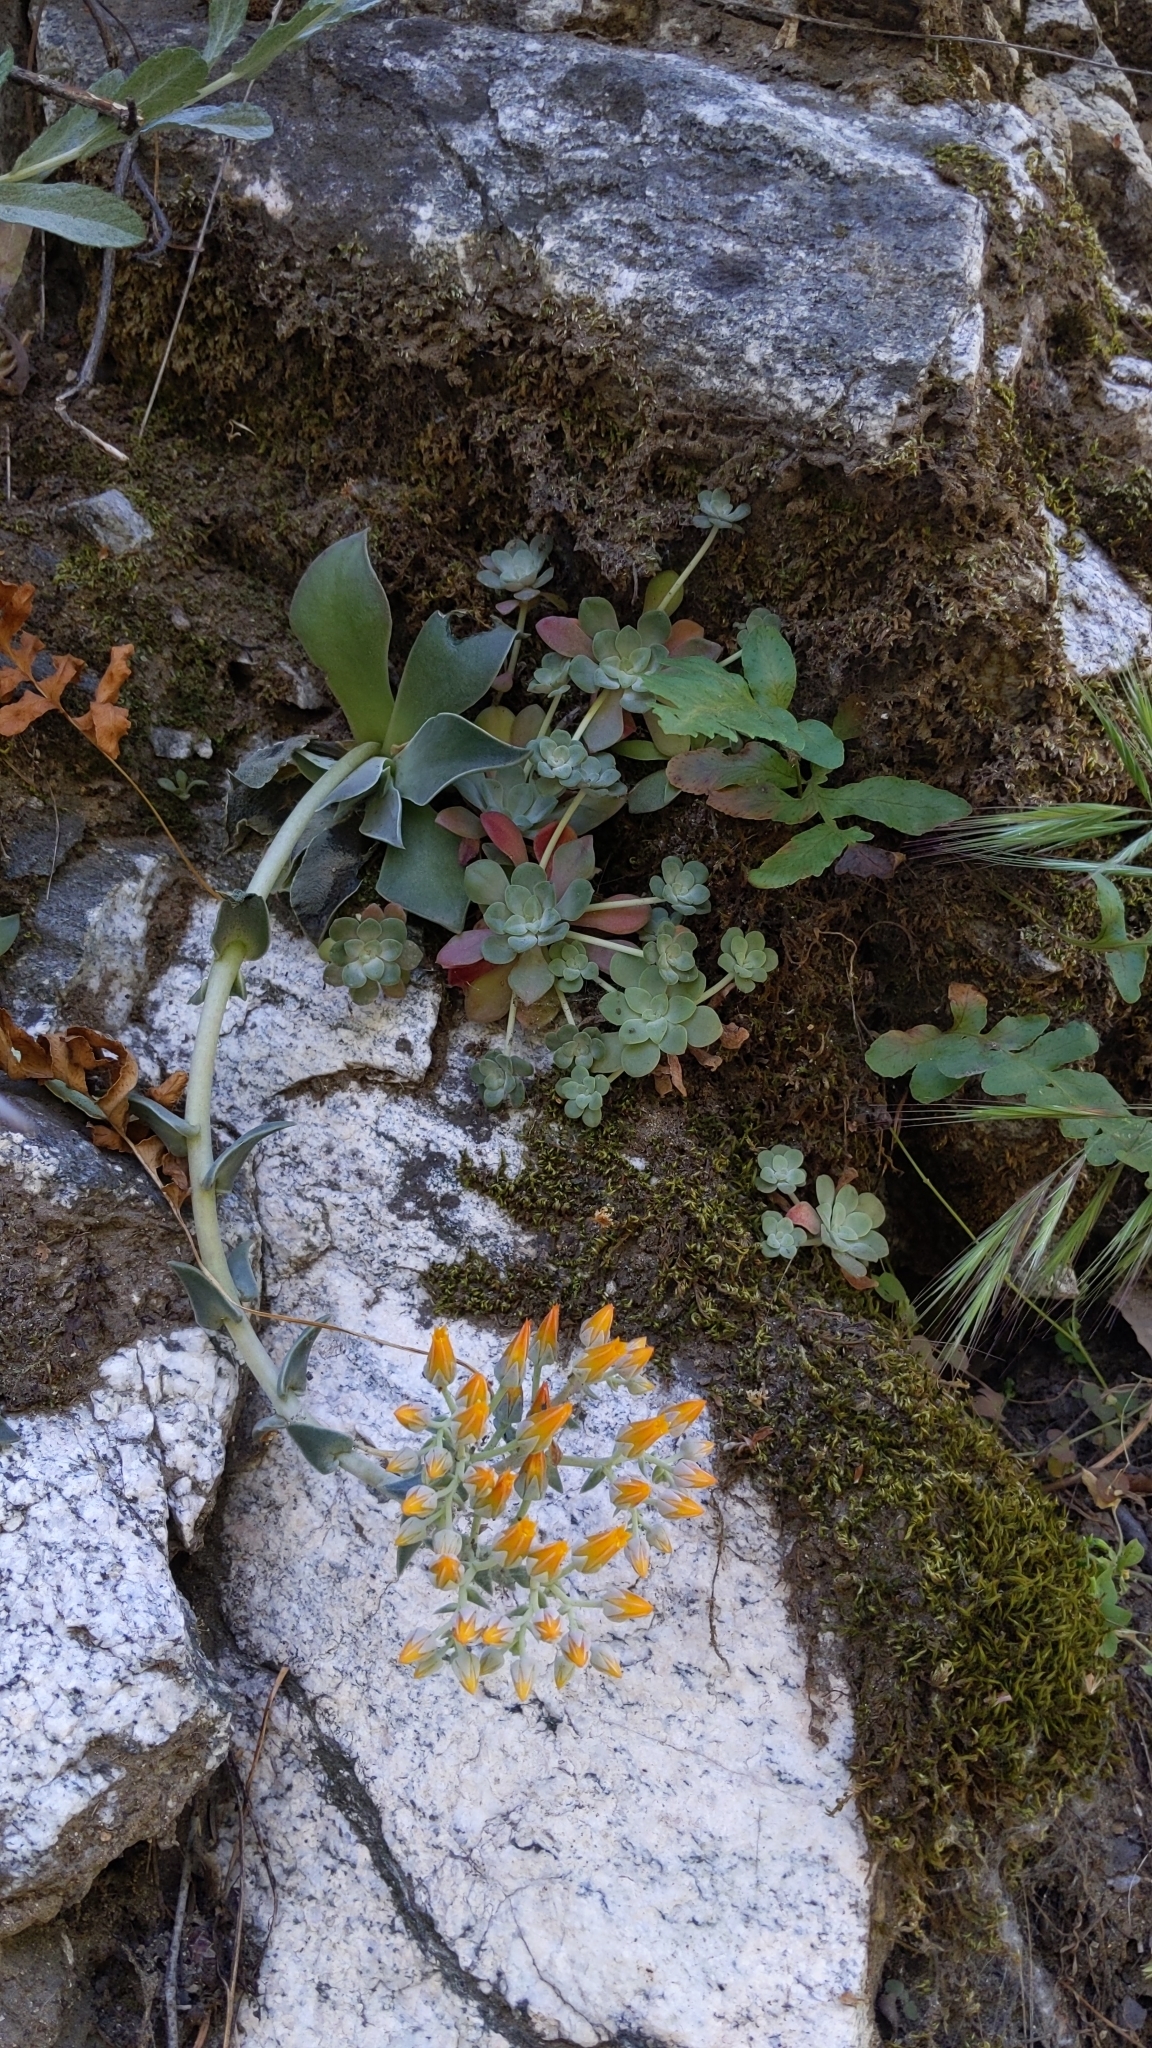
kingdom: Plantae
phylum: Tracheophyta
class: Magnoliopsida
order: Saxifragales
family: Crassulaceae
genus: Dudleya
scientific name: Dudleya cymosa
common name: Canyon dudleya
